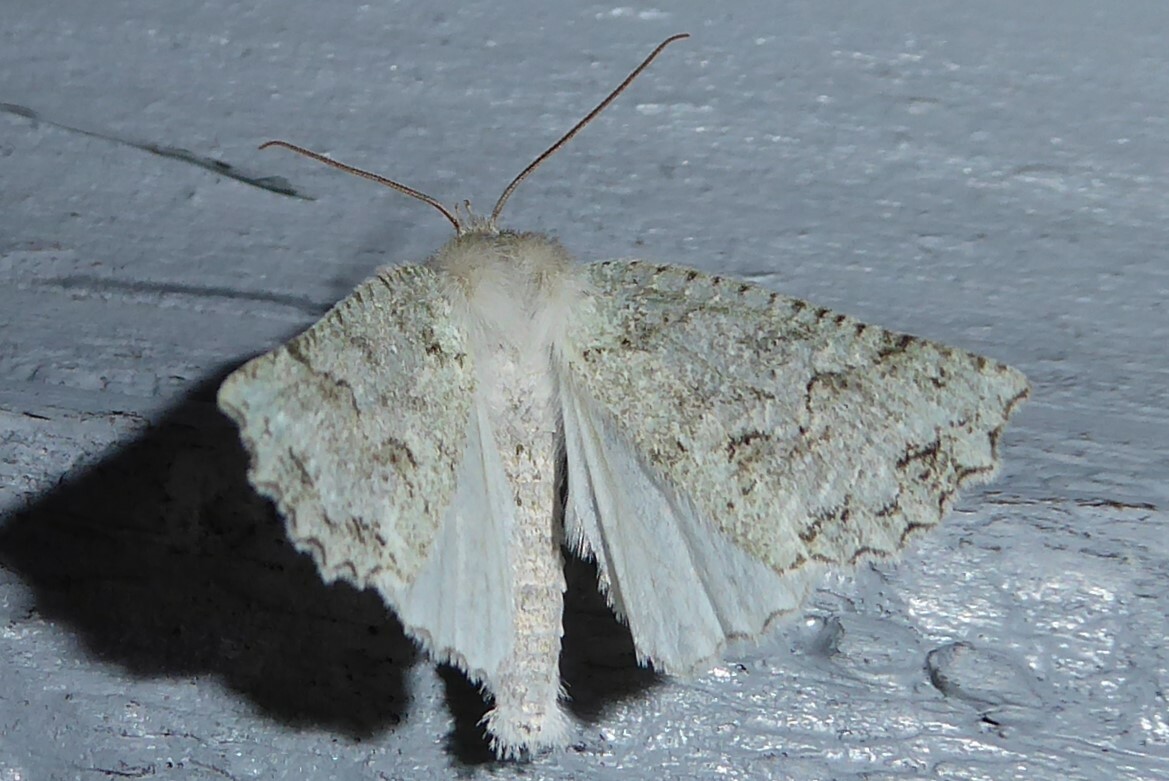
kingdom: Animalia
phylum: Arthropoda
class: Insecta
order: Lepidoptera
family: Geometridae
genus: Declana
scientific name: Declana niveata
